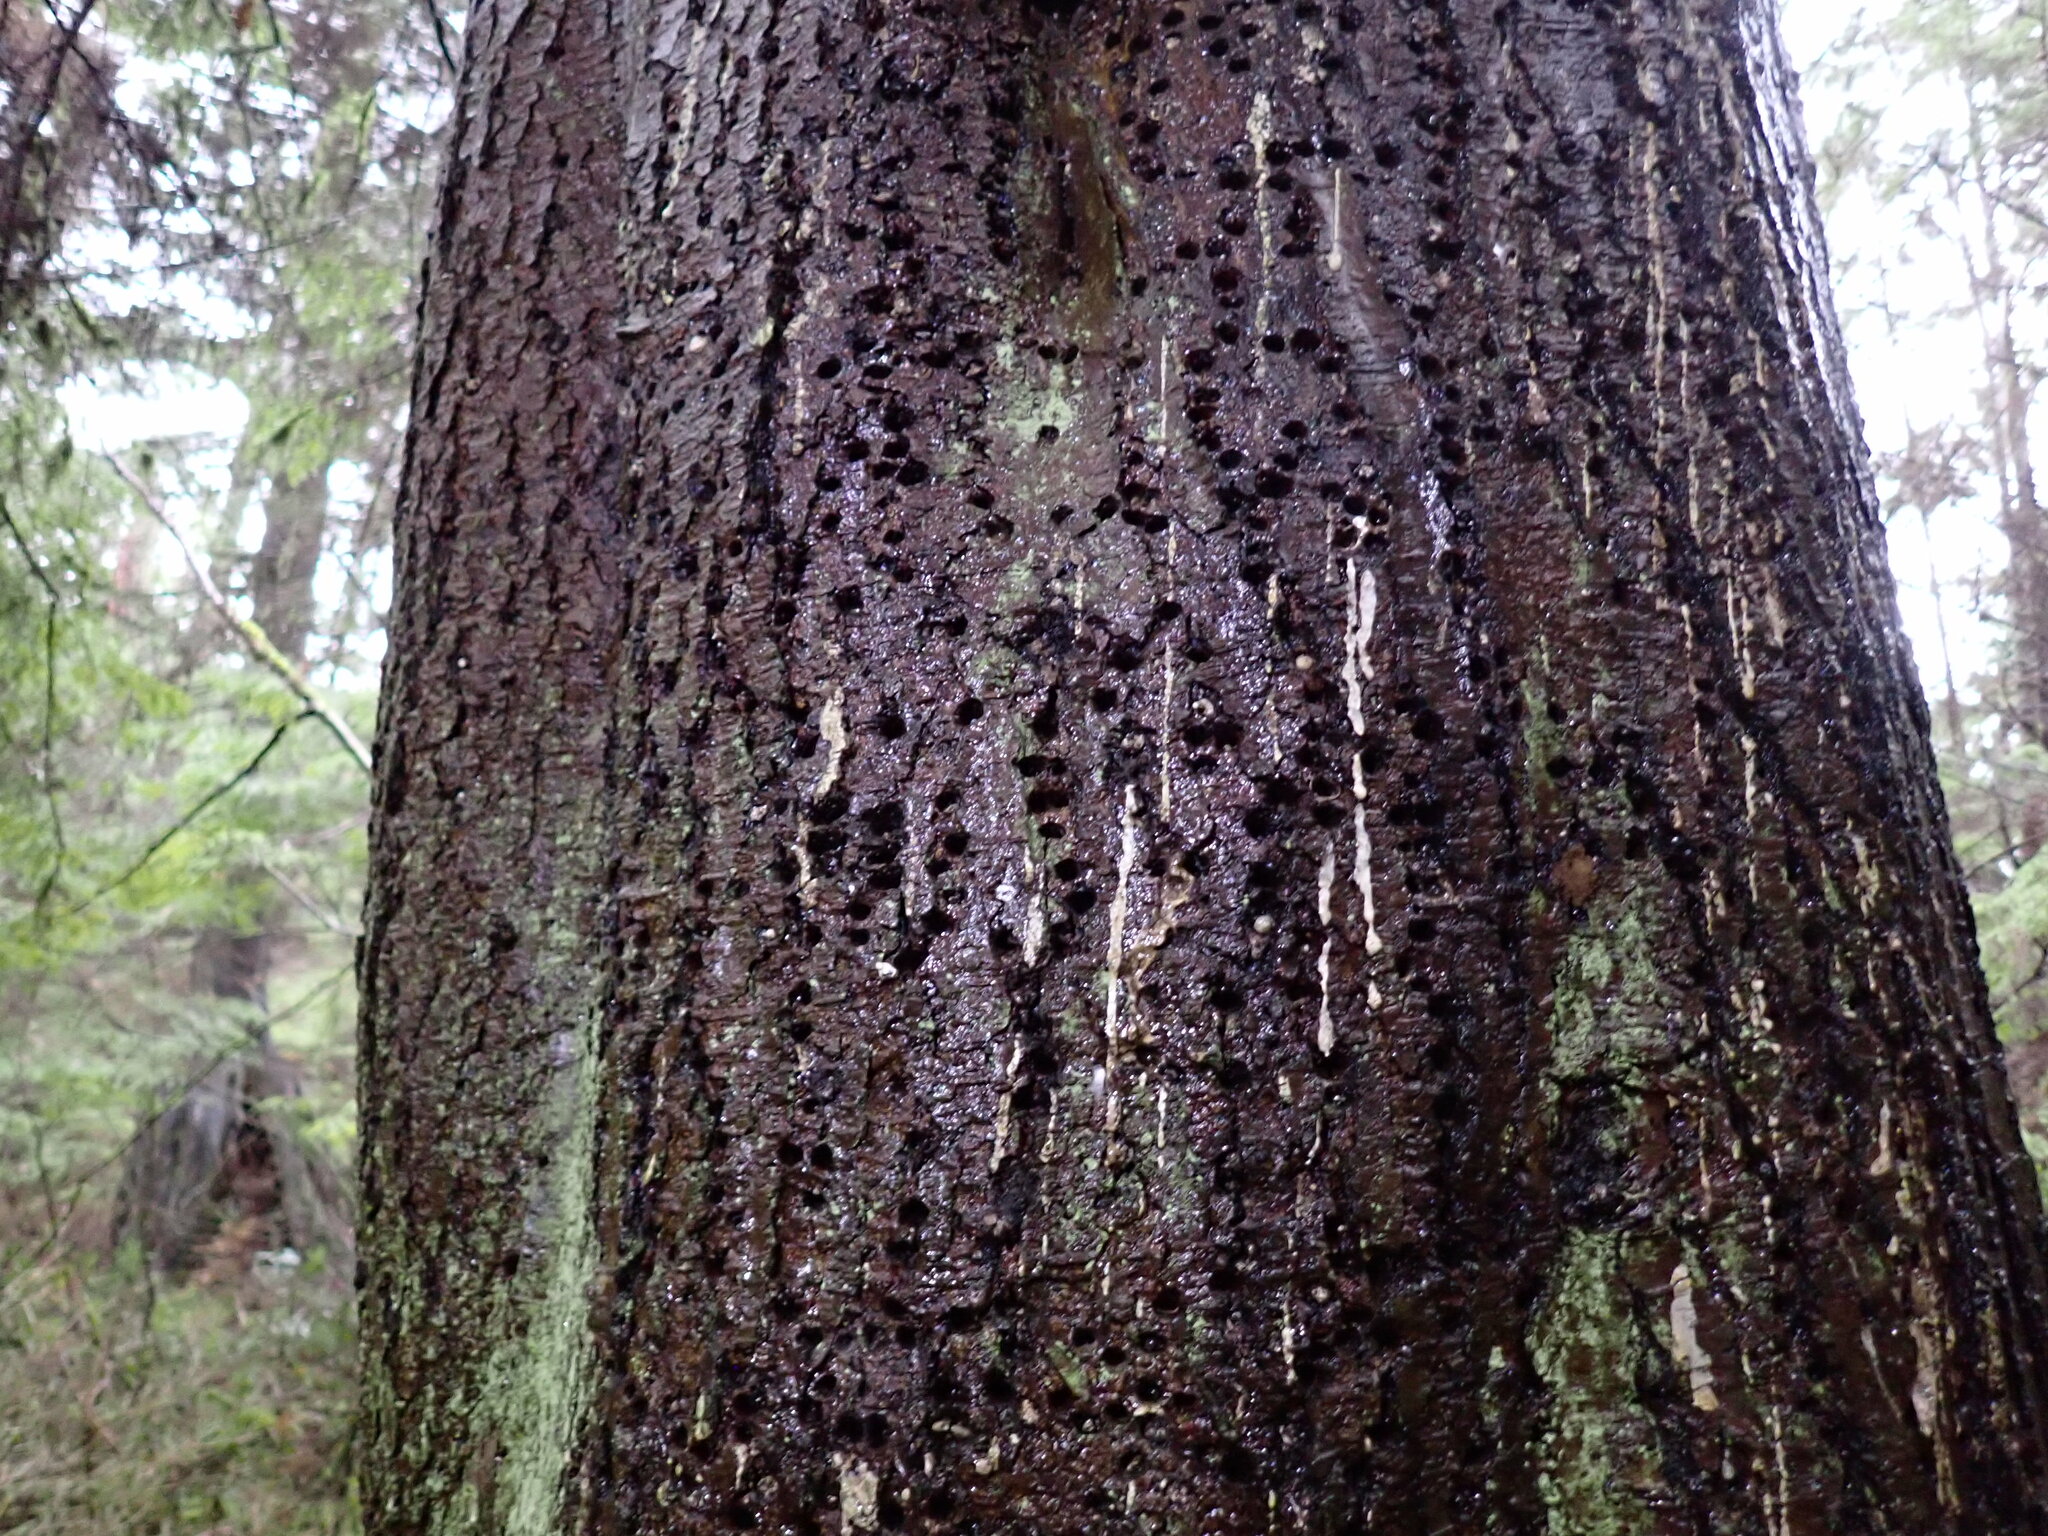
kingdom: Animalia
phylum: Chordata
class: Aves
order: Piciformes
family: Picidae
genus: Sphyrapicus
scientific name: Sphyrapicus ruber
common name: Red-breasted sapsucker
